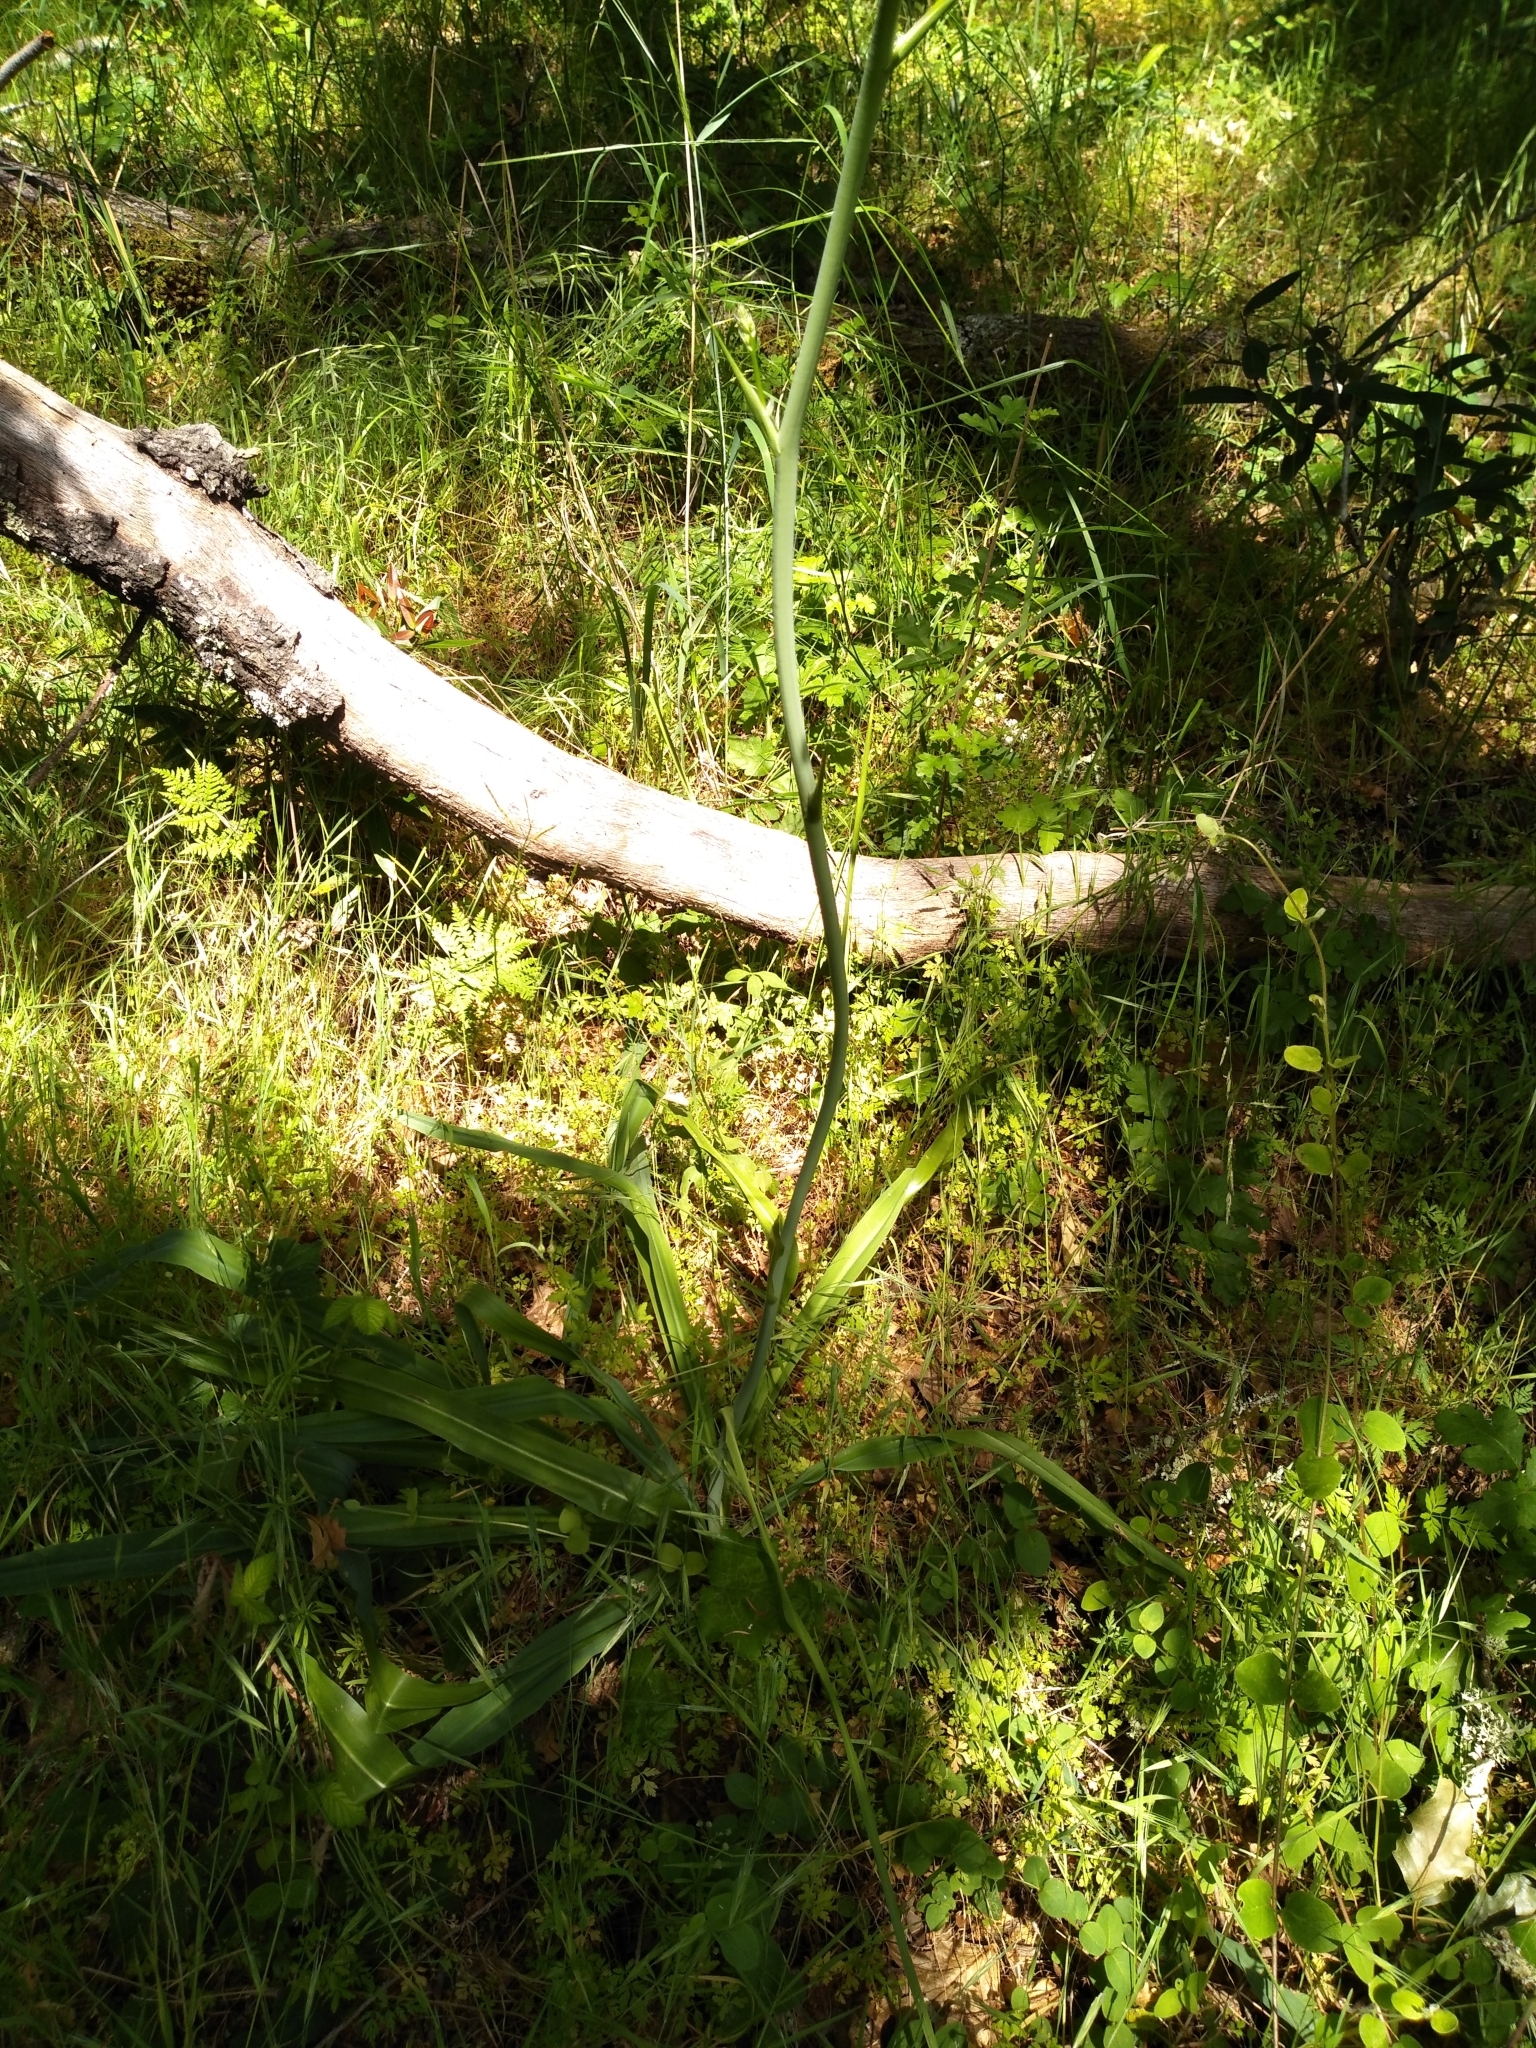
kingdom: Plantae
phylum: Tracheophyta
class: Liliopsida
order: Asparagales
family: Asparagaceae
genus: Chlorogalum
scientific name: Chlorogalum pomeridianum
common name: Amole
